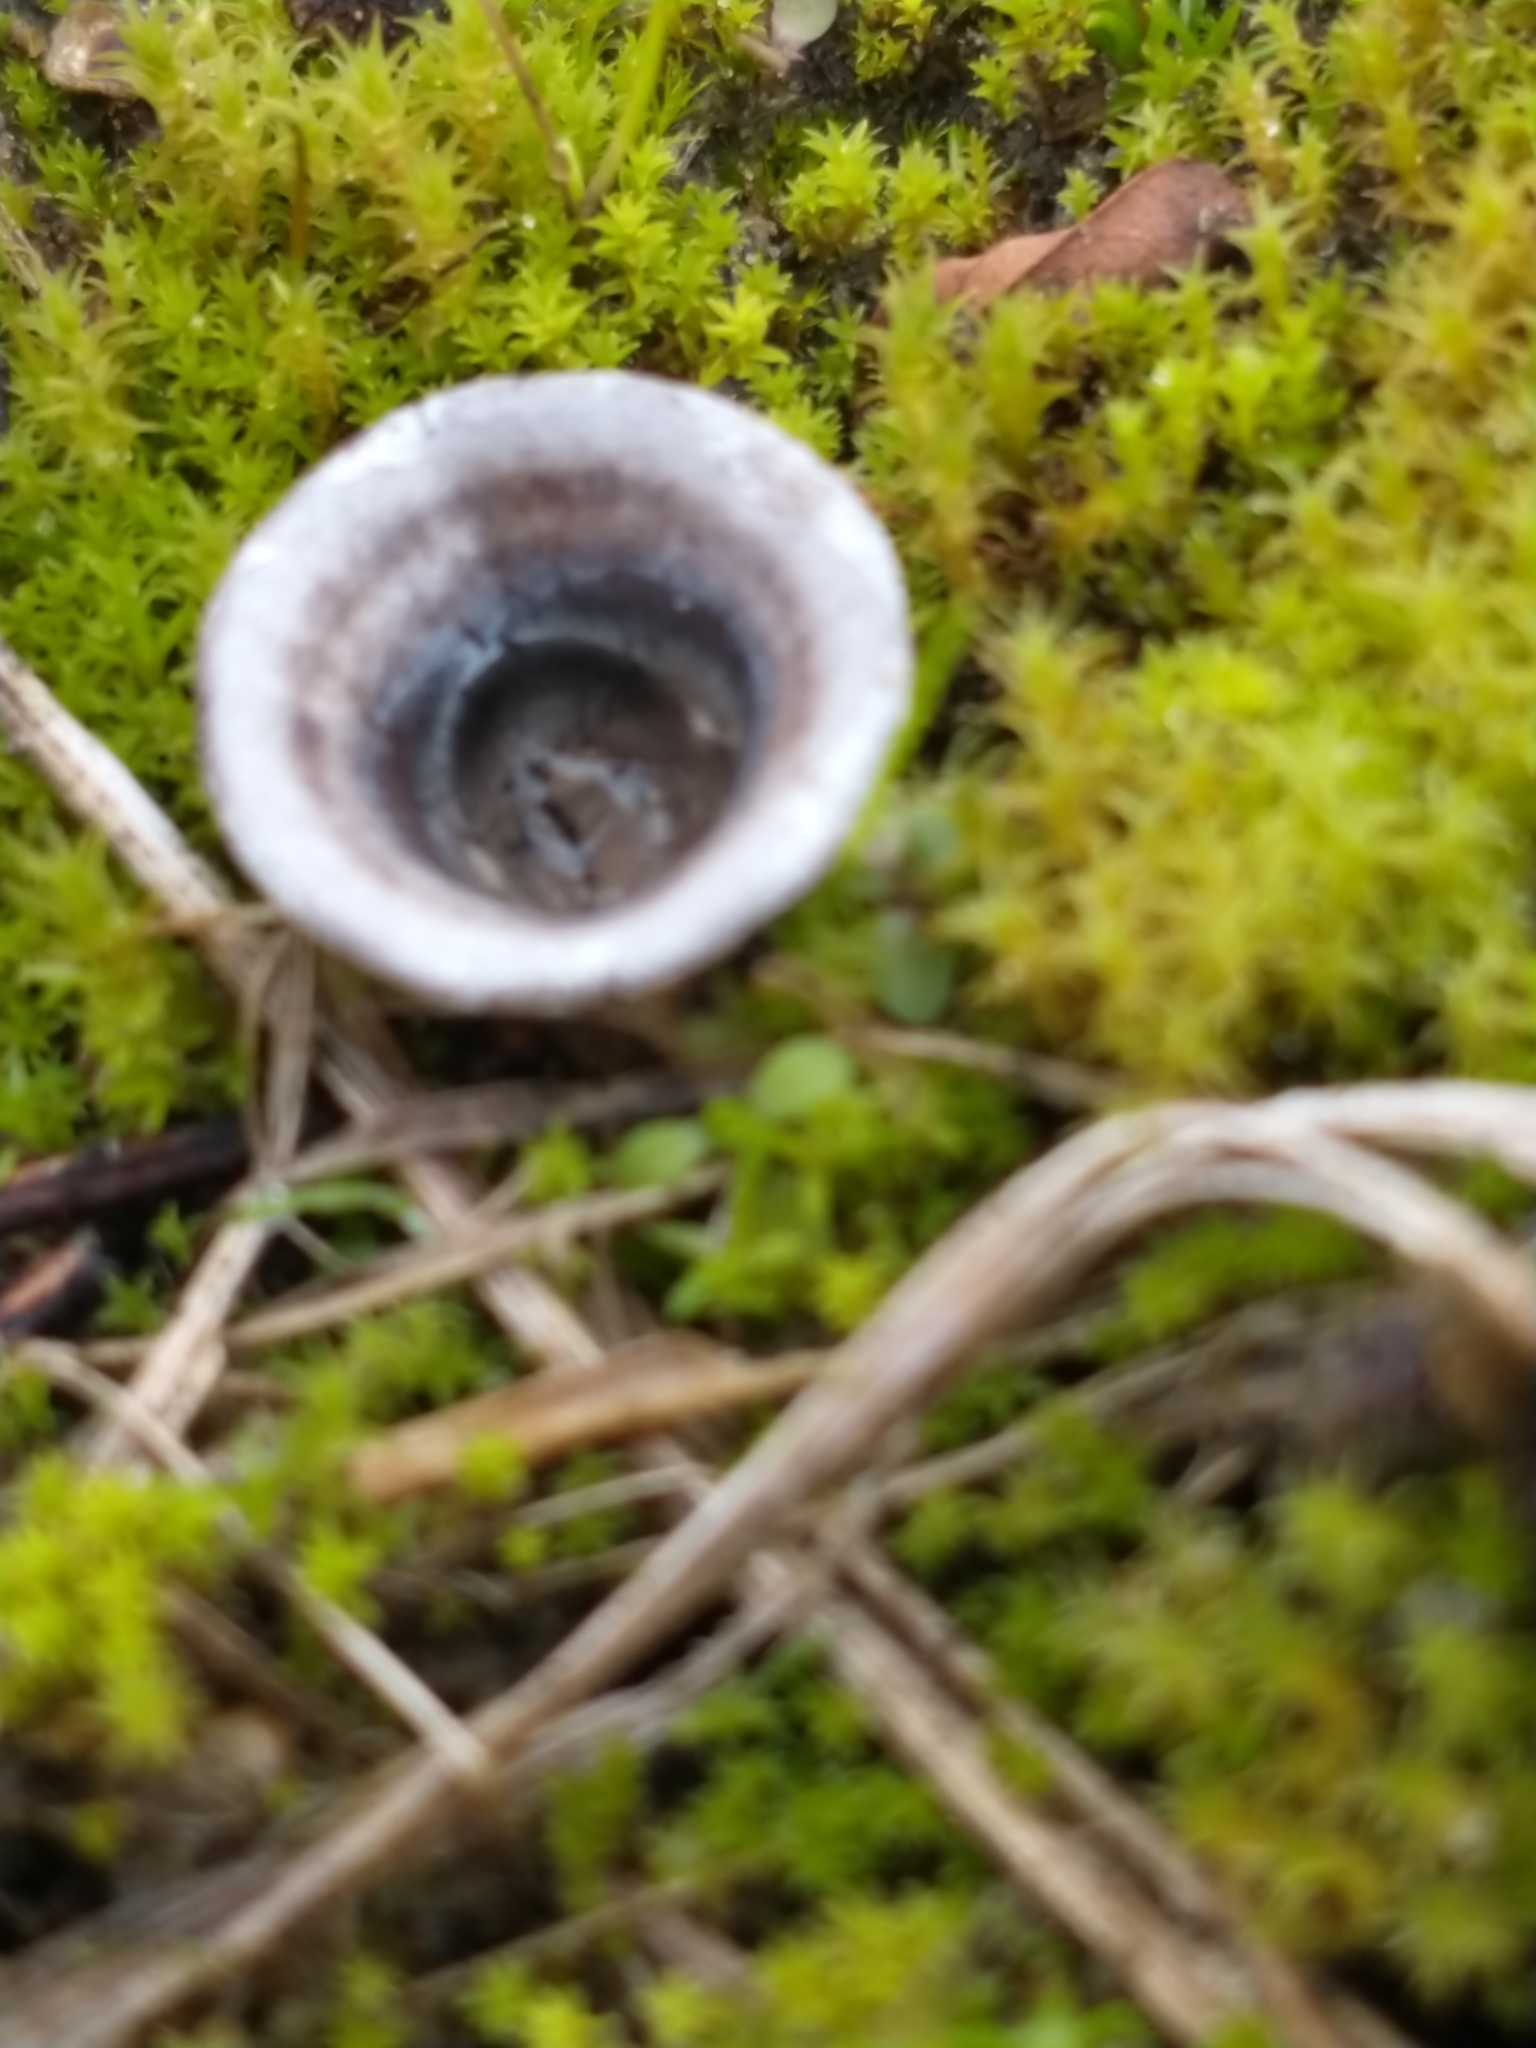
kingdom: Fungi
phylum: Basidiomycota
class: Agaricomycetes
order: Agaricales
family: Agaricaceae
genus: Cyathus
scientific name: Cyathus olla
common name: Field bird's nest
